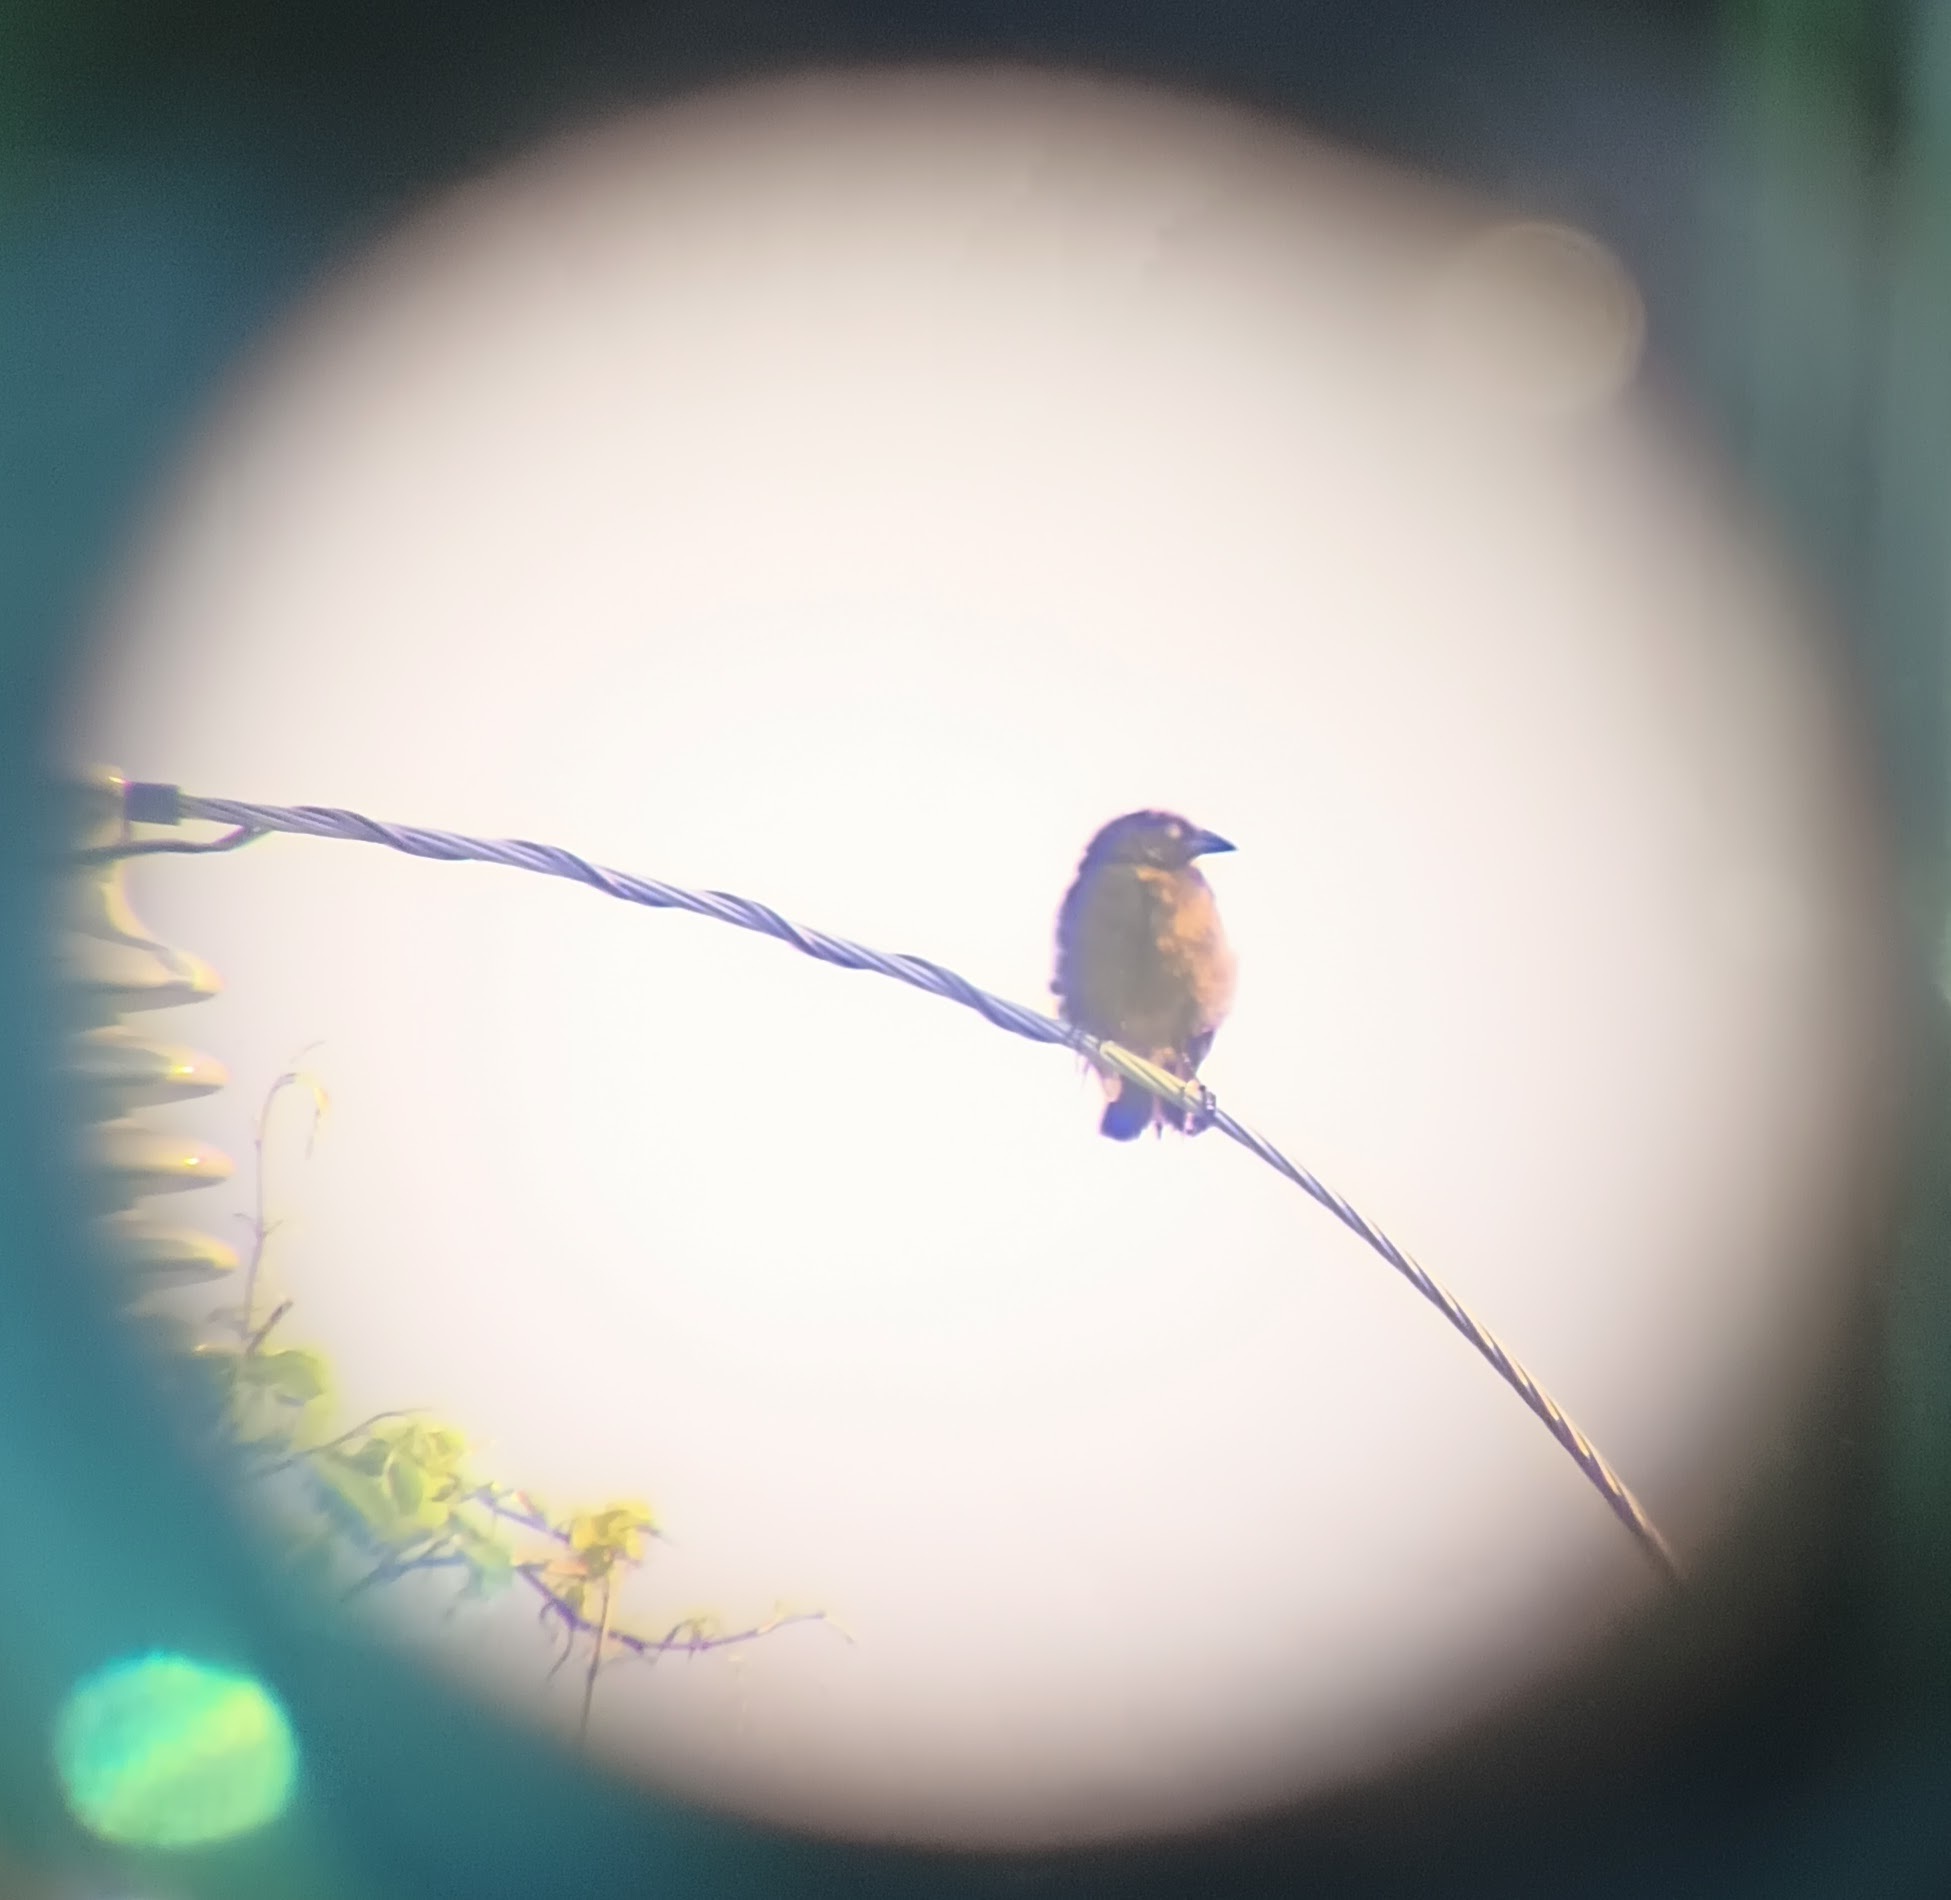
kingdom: Animalia
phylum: Chordata
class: Aves
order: Passeriformes
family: Icteridae
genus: Molothrus
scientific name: Molothrus aeneus
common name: Bronzed cowbird
